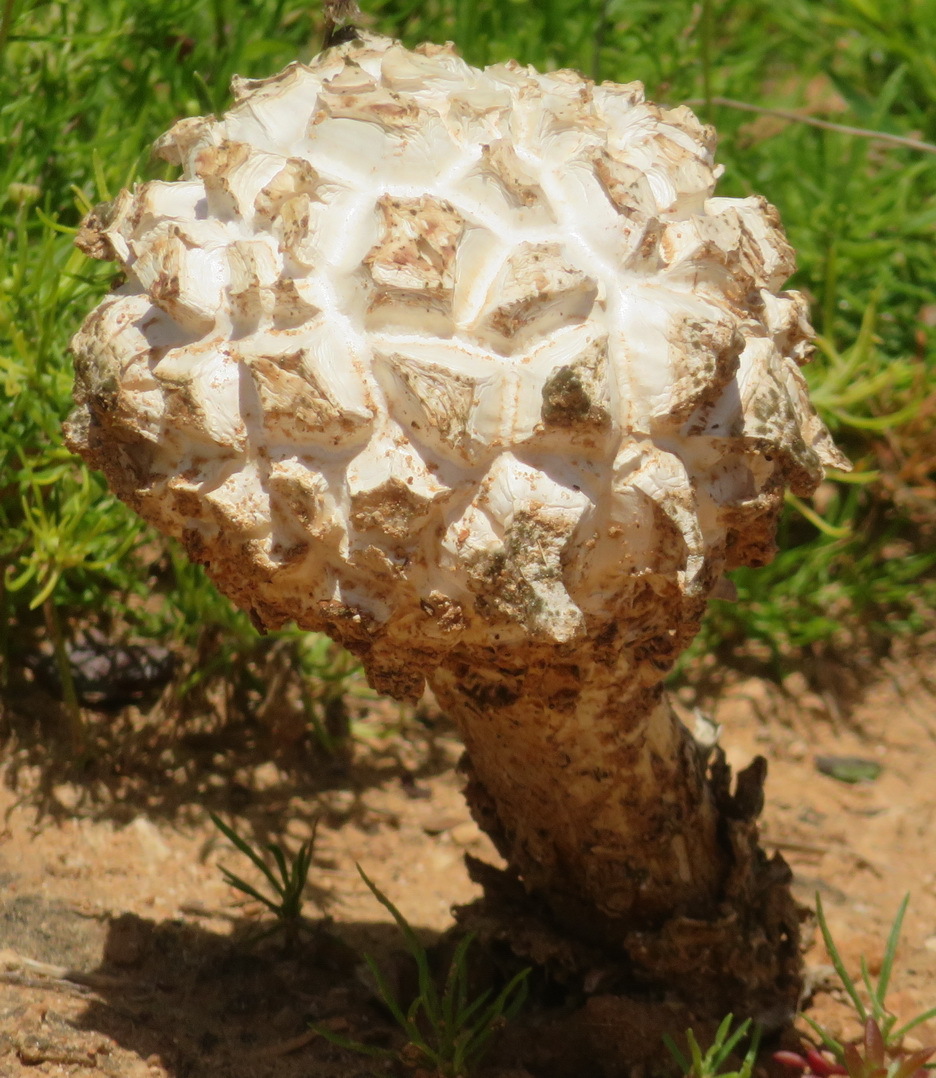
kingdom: Fungi
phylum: Basidiomycota
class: Agaricomycetes
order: Agaricales
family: Agaricaceae
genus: Phellorinia
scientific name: Phellorinia herculeana
